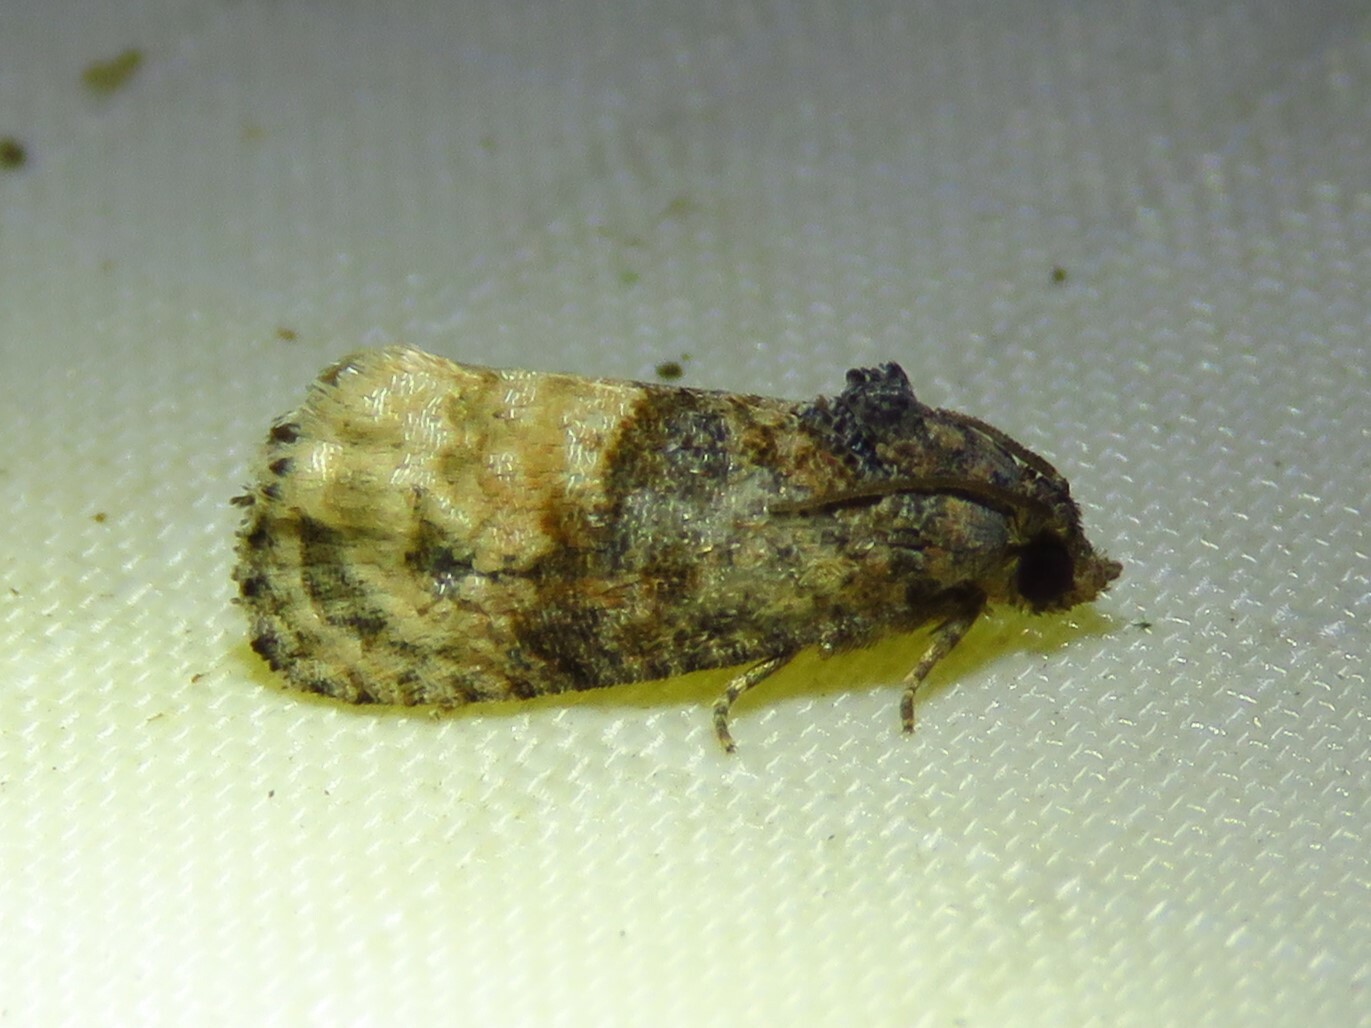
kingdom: Animalia
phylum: Arthropoda
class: Insecta
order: Lepidoptera
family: Tortricidae
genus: Ecdytolopha
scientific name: Ecdytolopha mana
